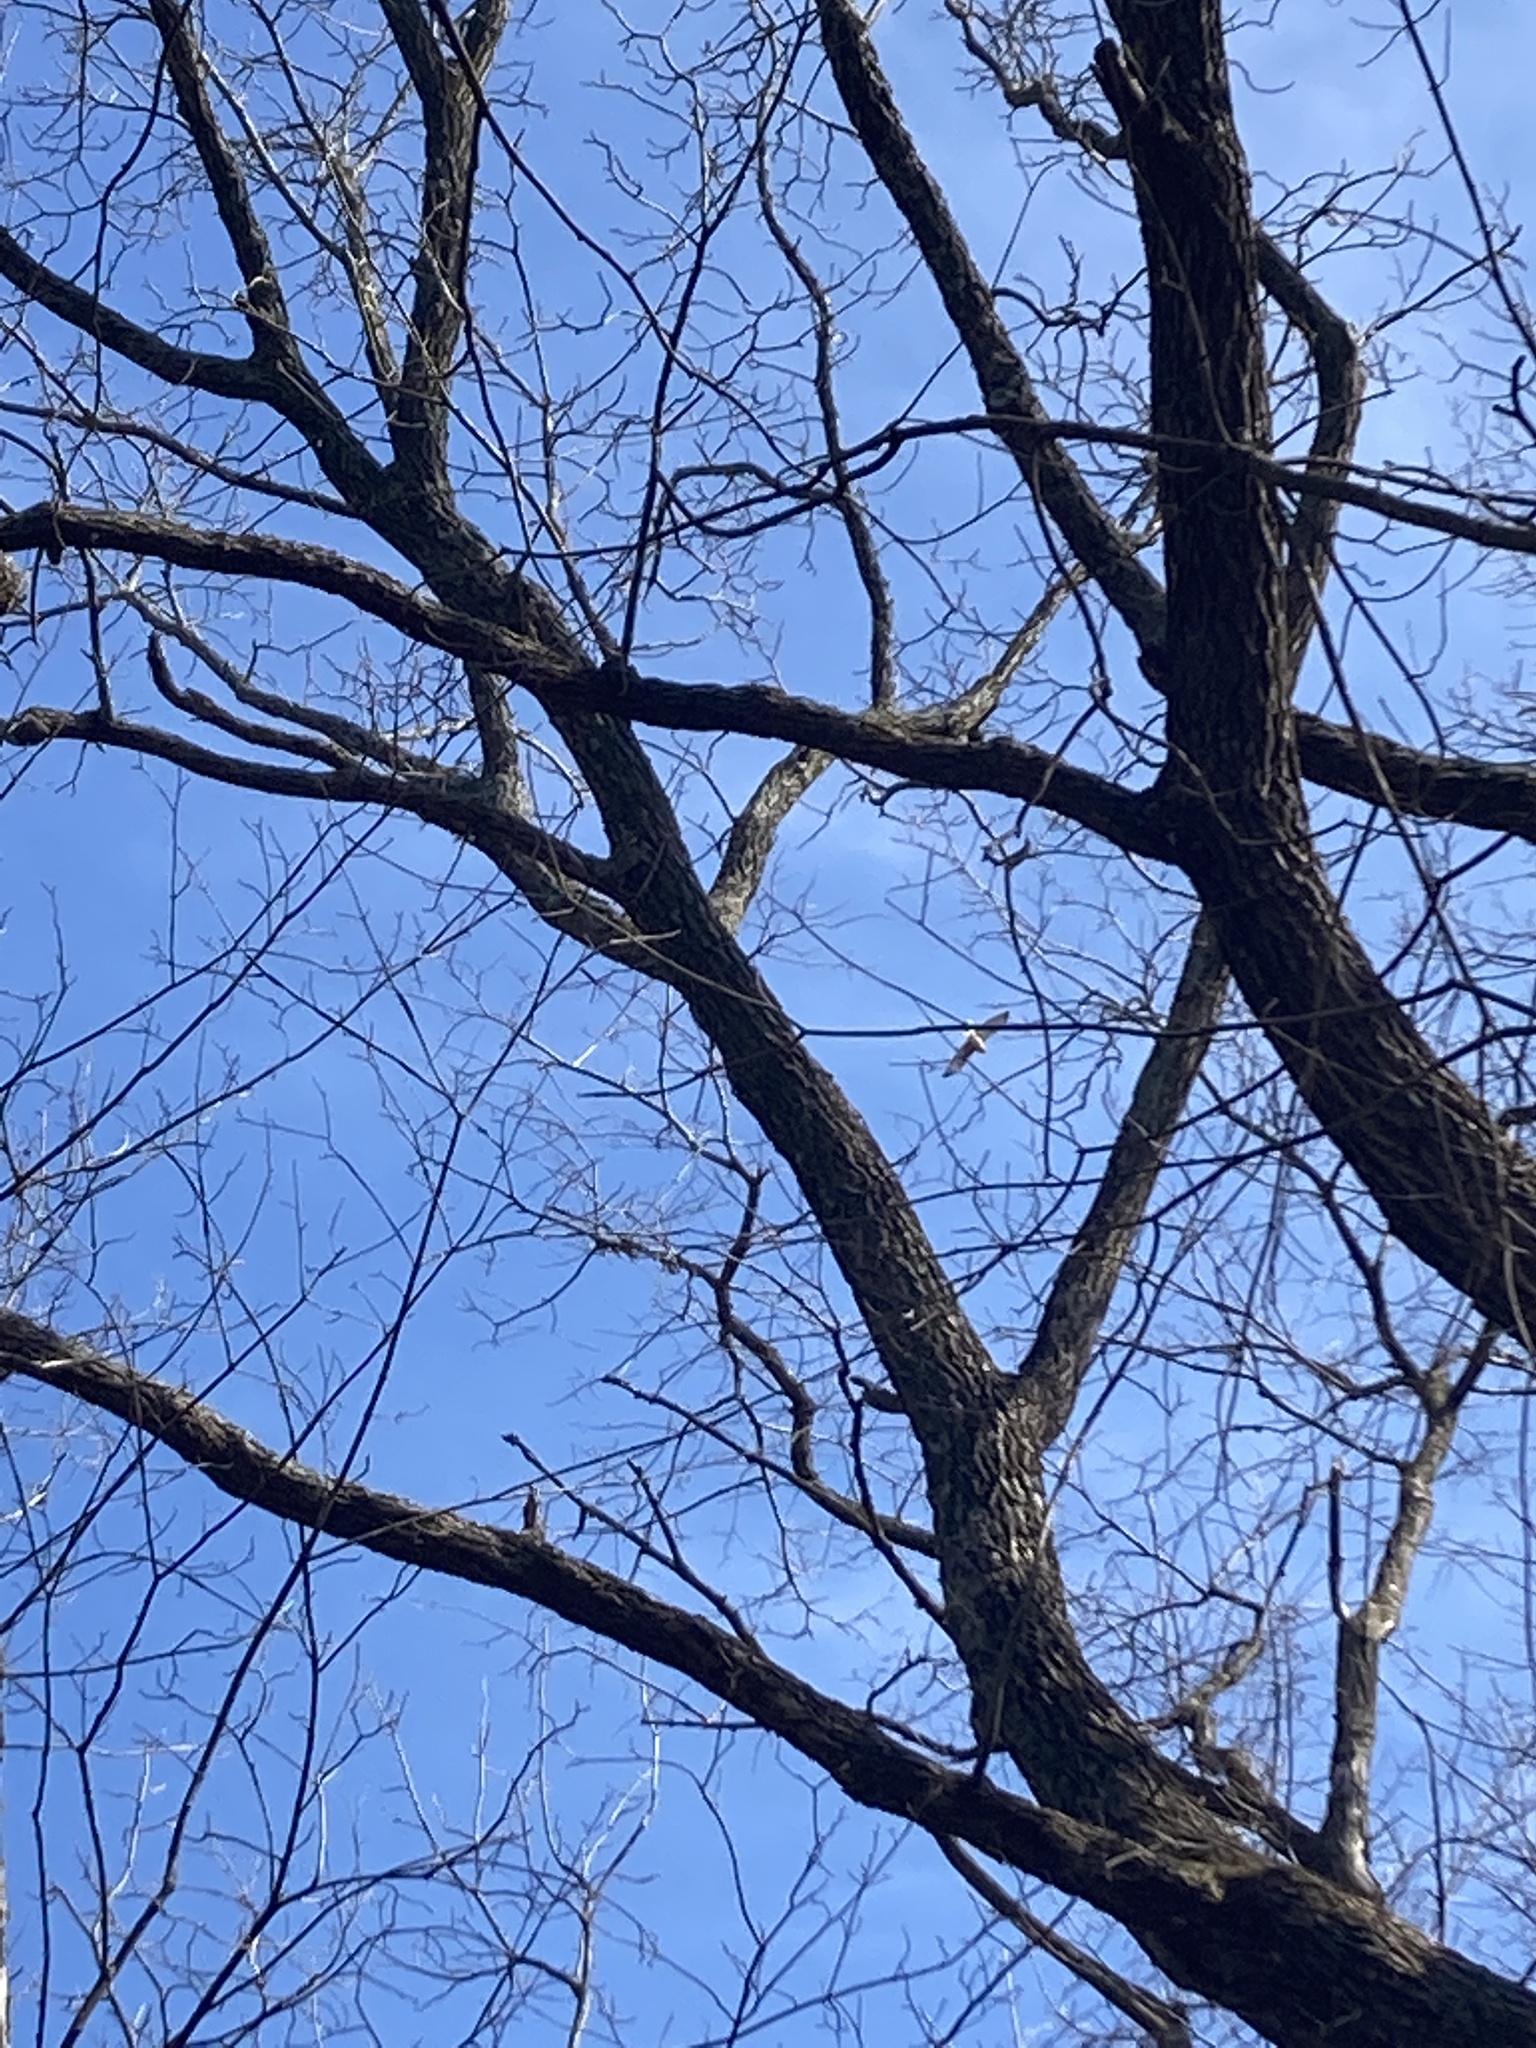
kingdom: Animalia
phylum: Chordata
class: Aves
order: Accipitriformes
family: Accipitridae
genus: Buteo
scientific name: Buteo lineatus
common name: Red-shouldered hawk
